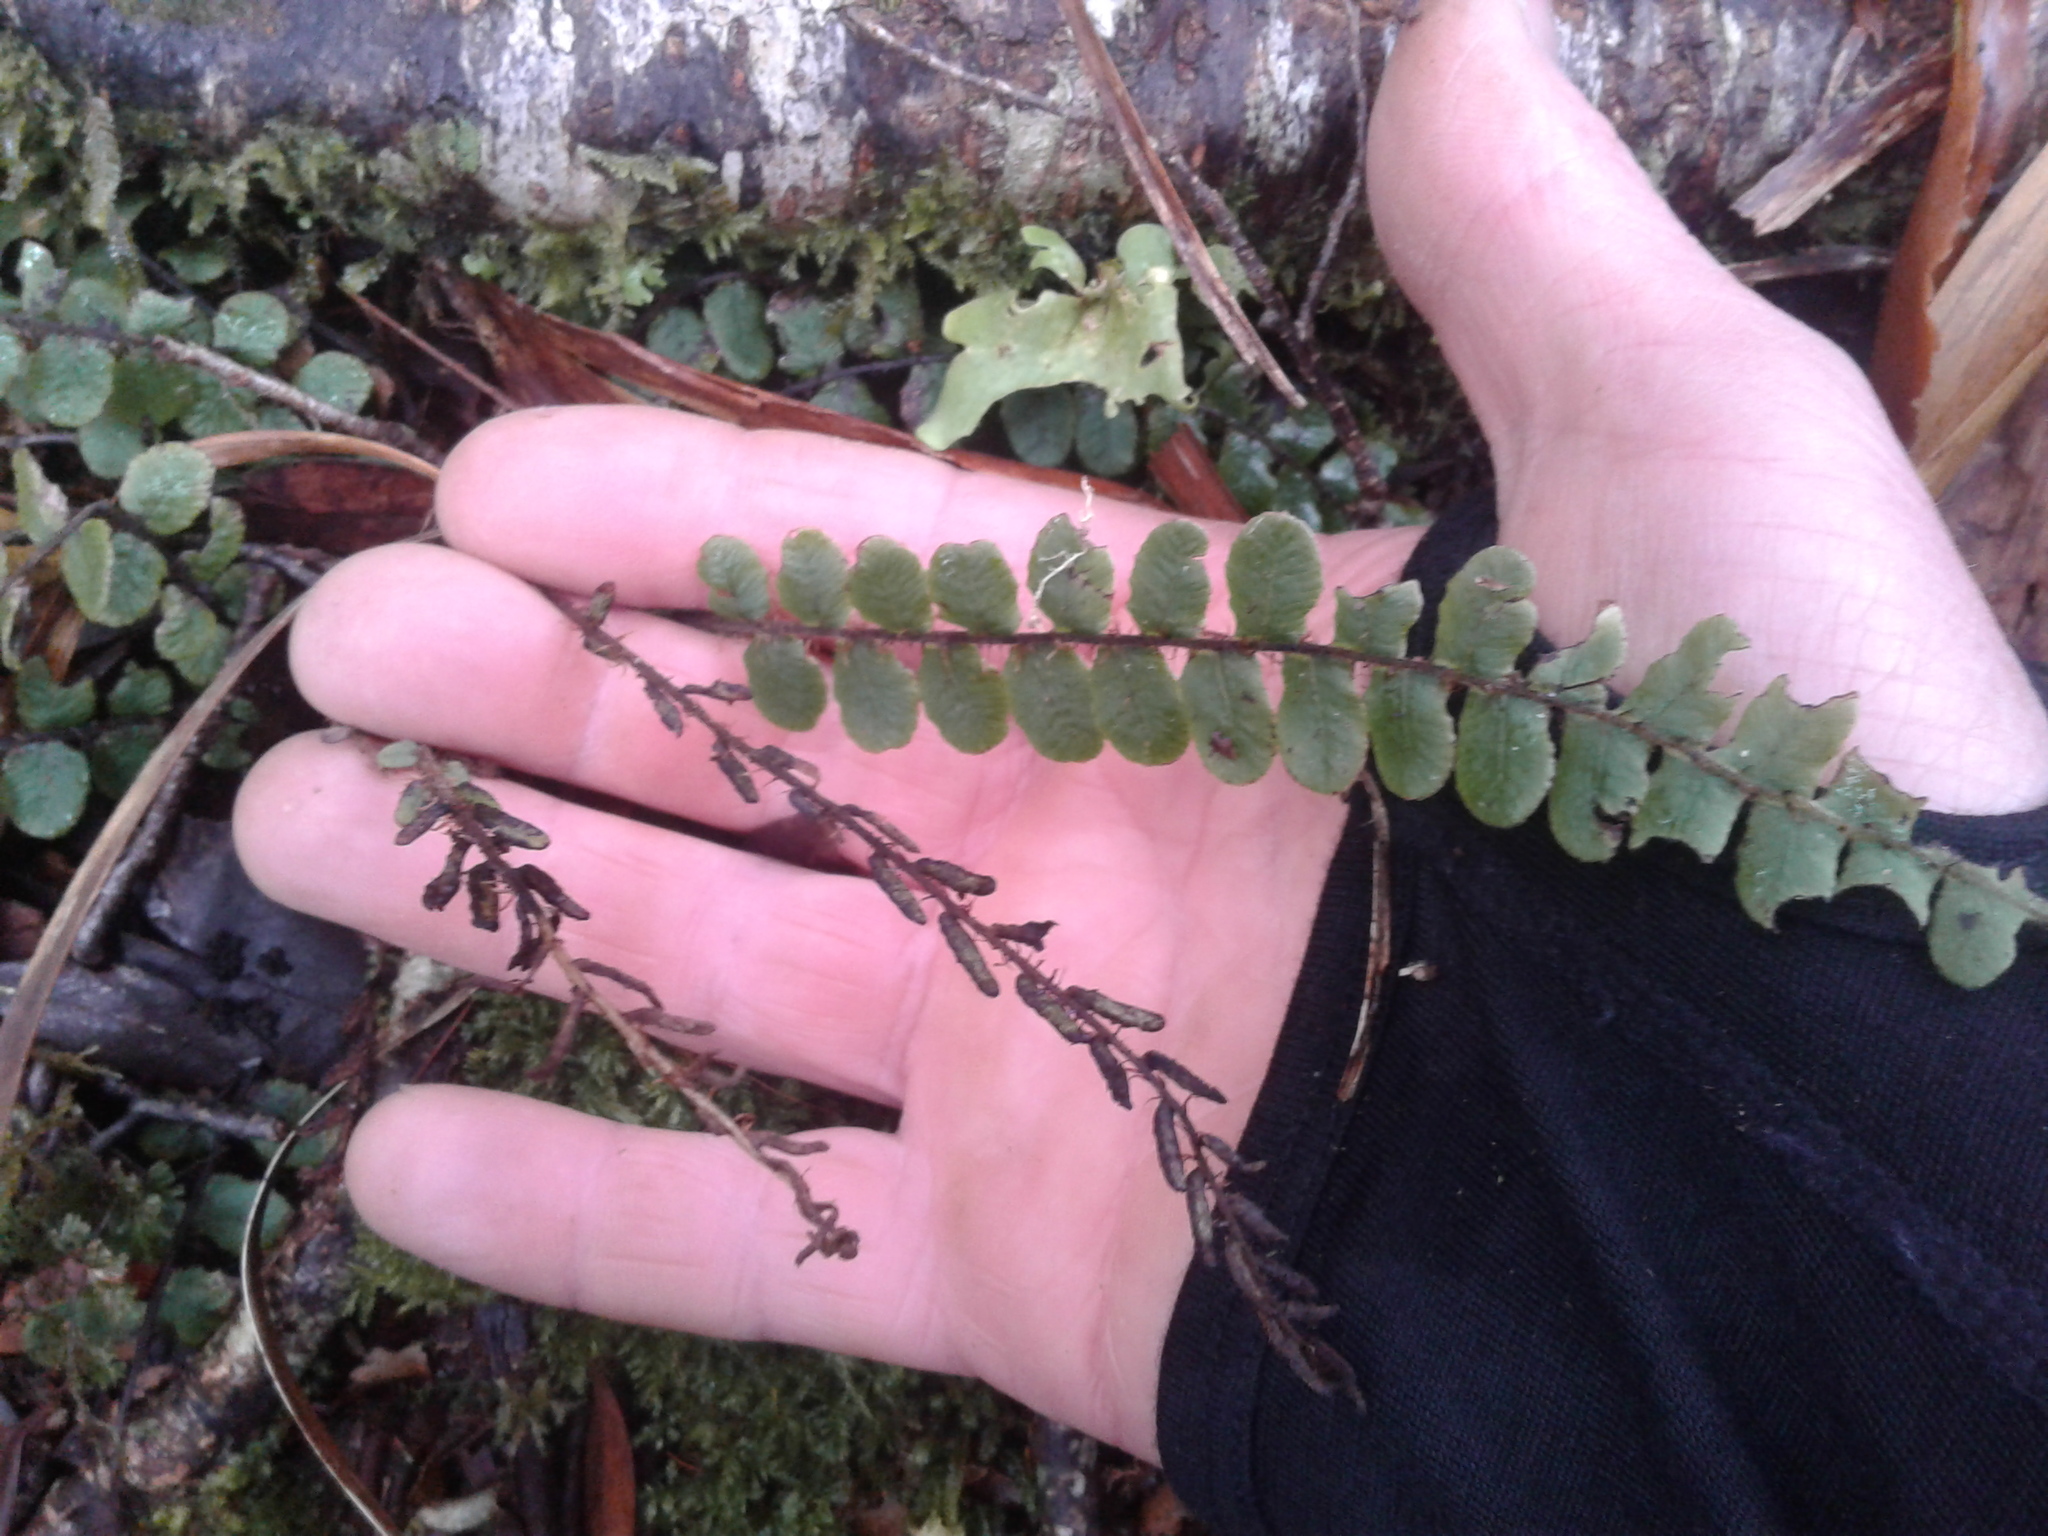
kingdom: Plantae
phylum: Tracheophyta
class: Polypodiopsida
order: Polypodiales
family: Blechnaceae
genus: Cranfillia
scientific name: Cranfillia fluviatilis
